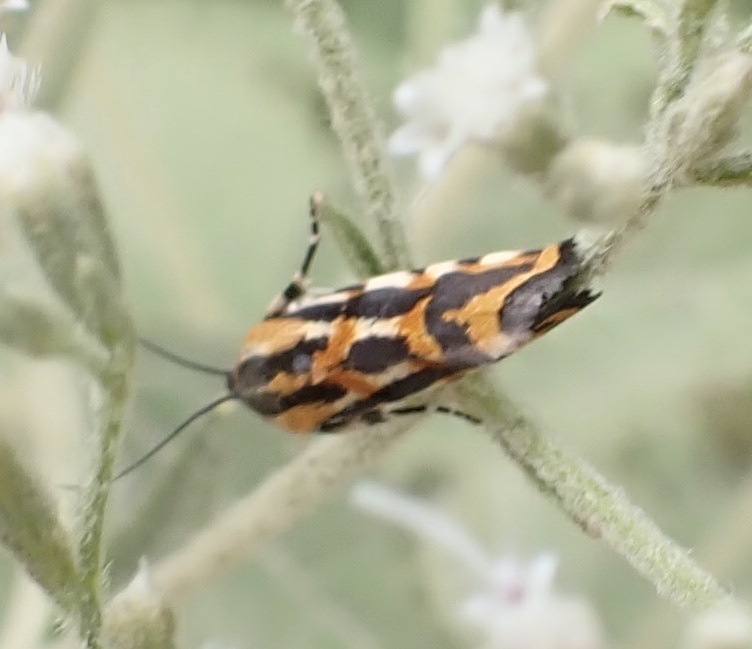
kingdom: Animalia
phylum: Arthropoda
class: Insecta
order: Lepidoptera
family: Noctuidae
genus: Acontia
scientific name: Acontia leo
